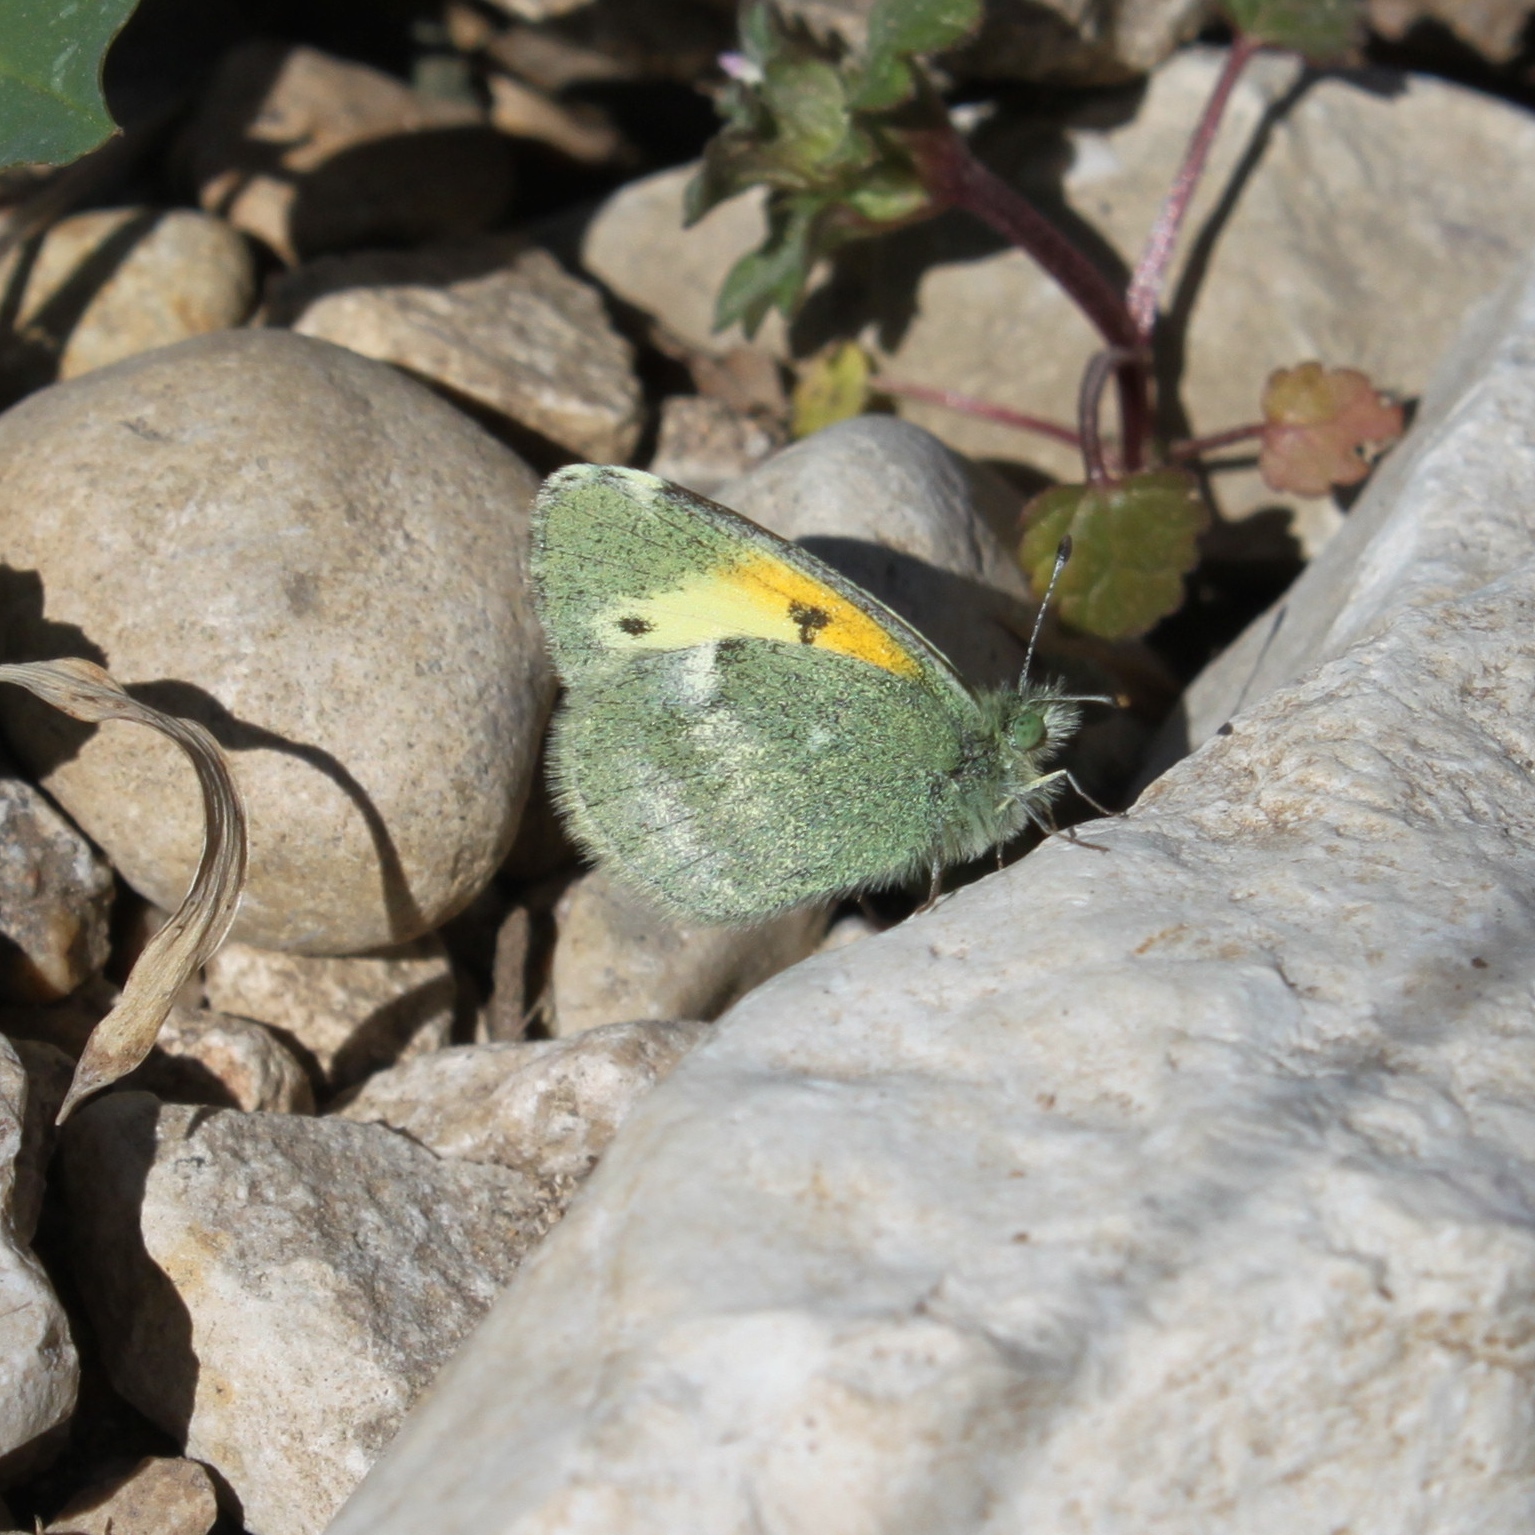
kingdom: Animalia
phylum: Arthropoda
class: Insecta
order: Lepidoptera
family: Pieridae
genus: Nathalis
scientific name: Nathalis iole
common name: Dainty sulphur
